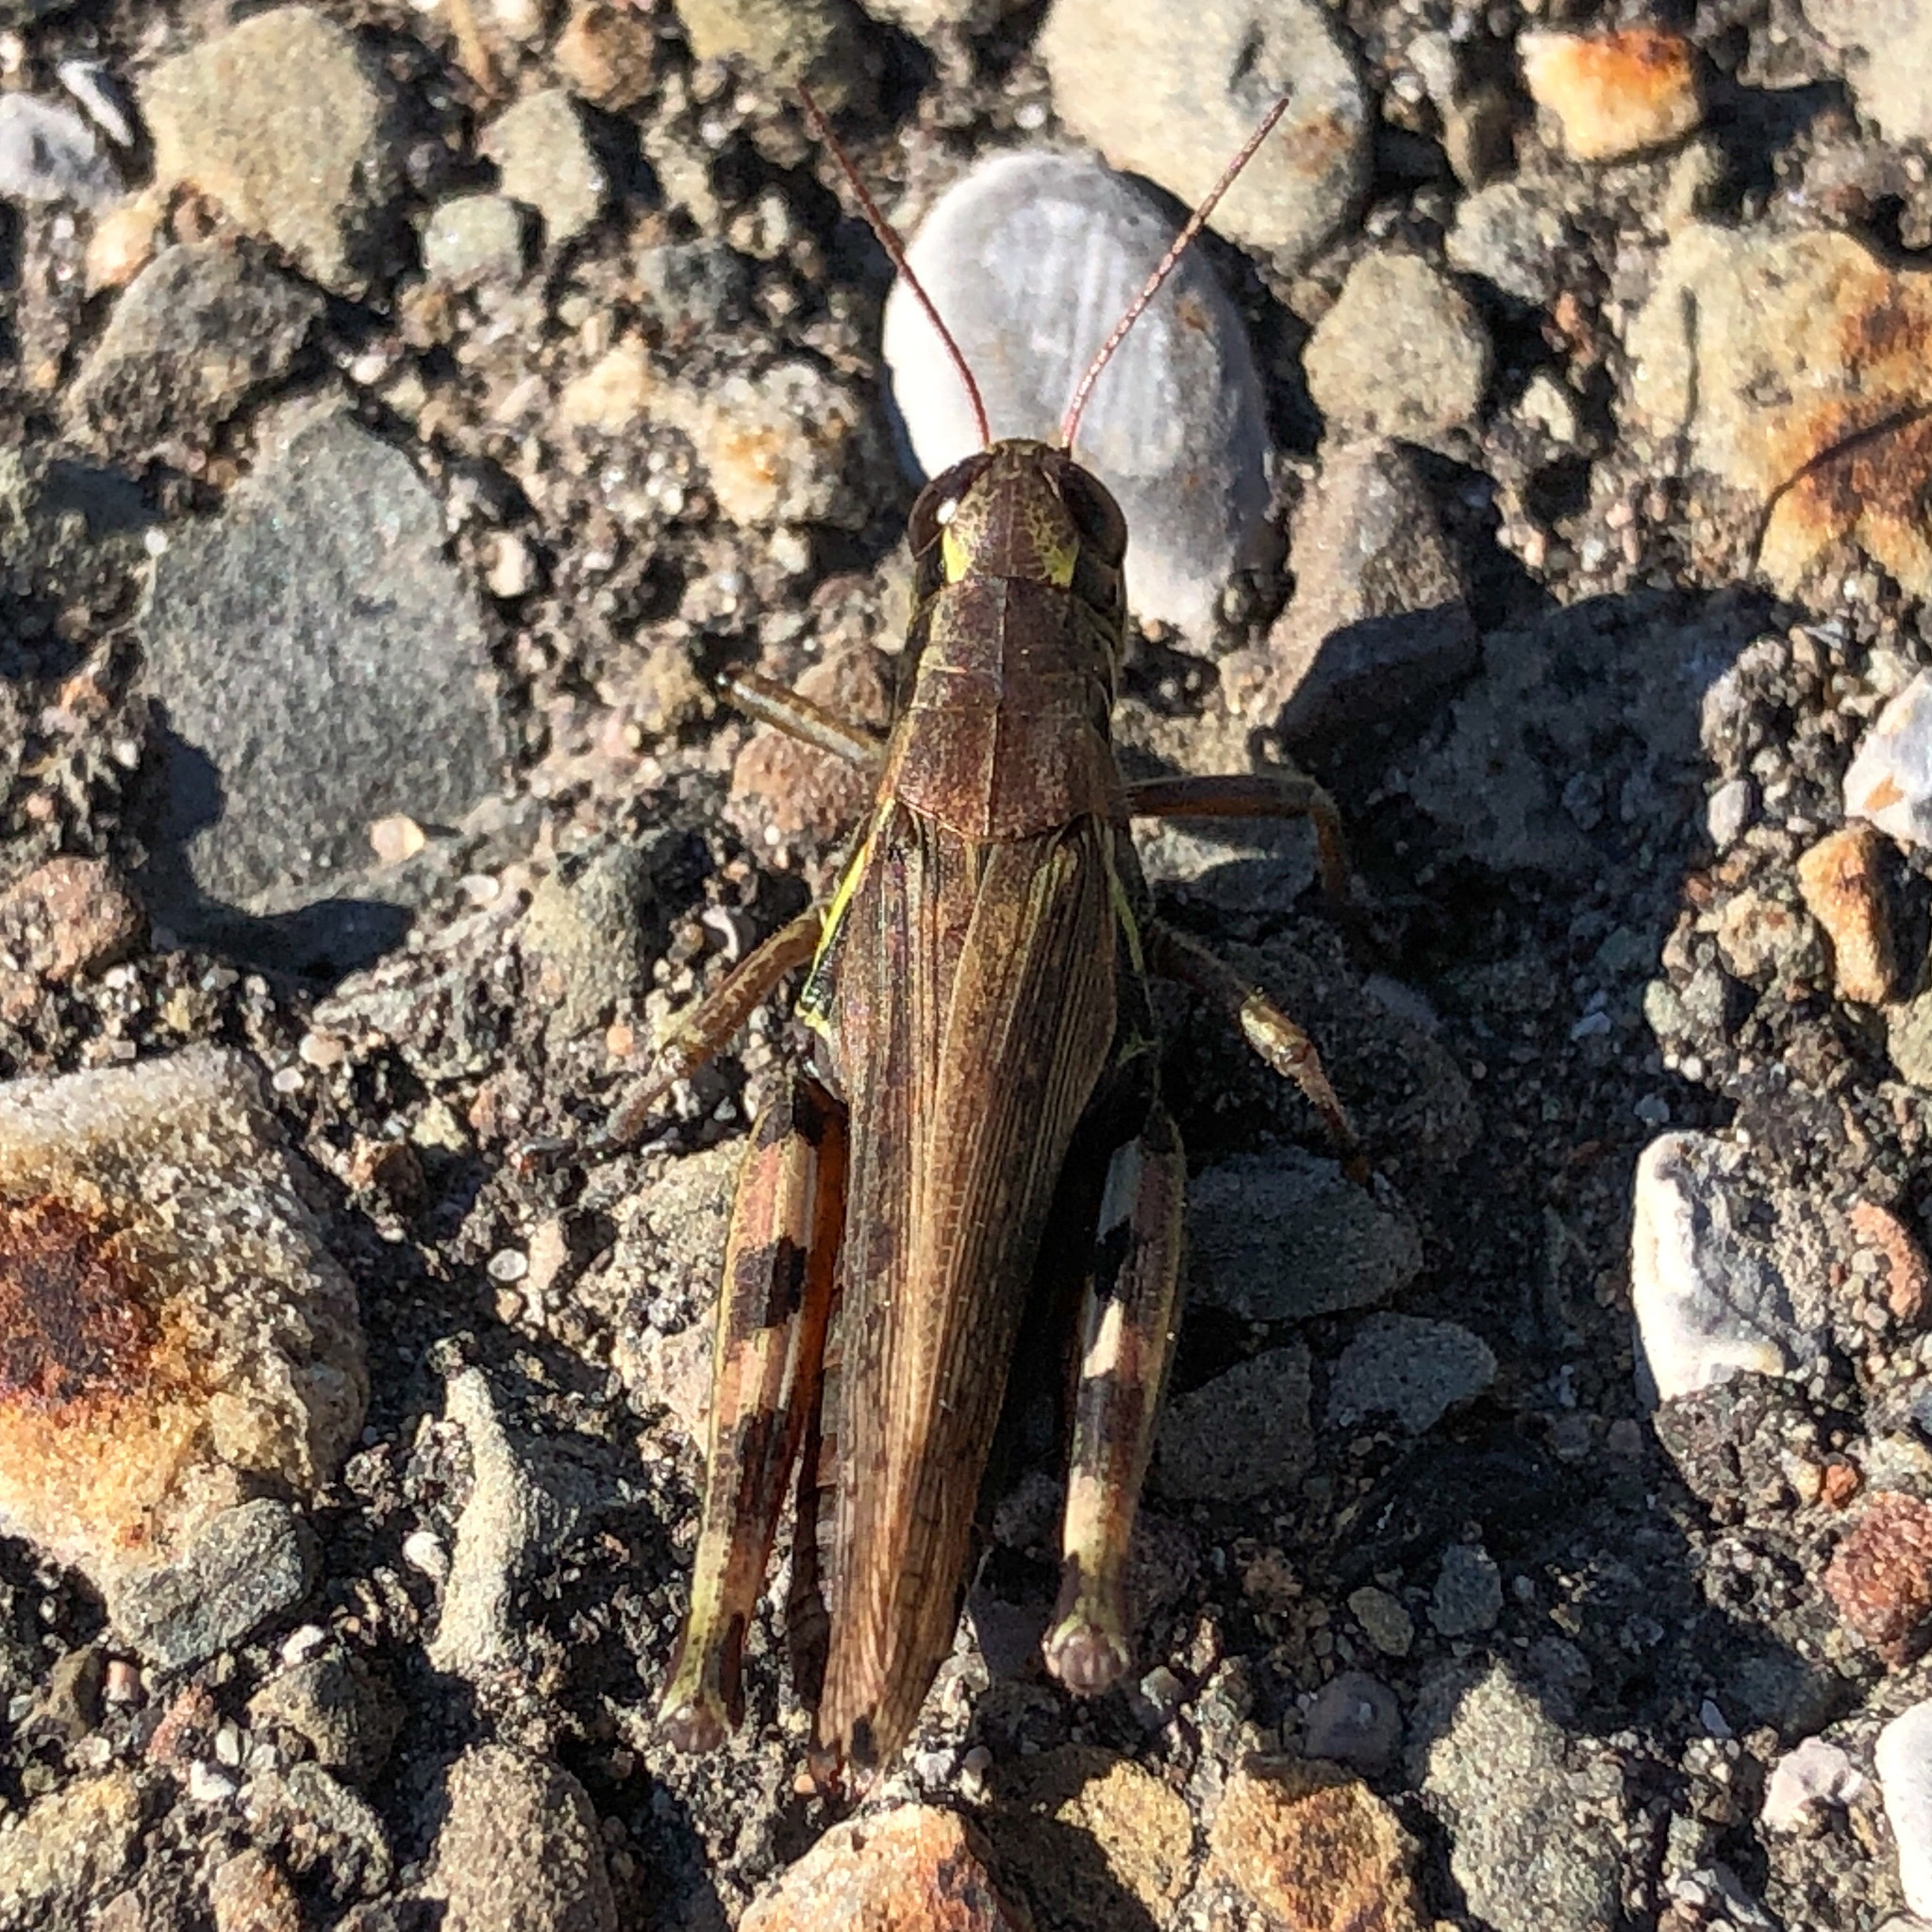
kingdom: Animalia
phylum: Arthropoda
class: Insecta
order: Orthoptera
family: Acrididae
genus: Melanoplus
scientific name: Melanoplus femurrubrum
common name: Red-legged grasshopper
